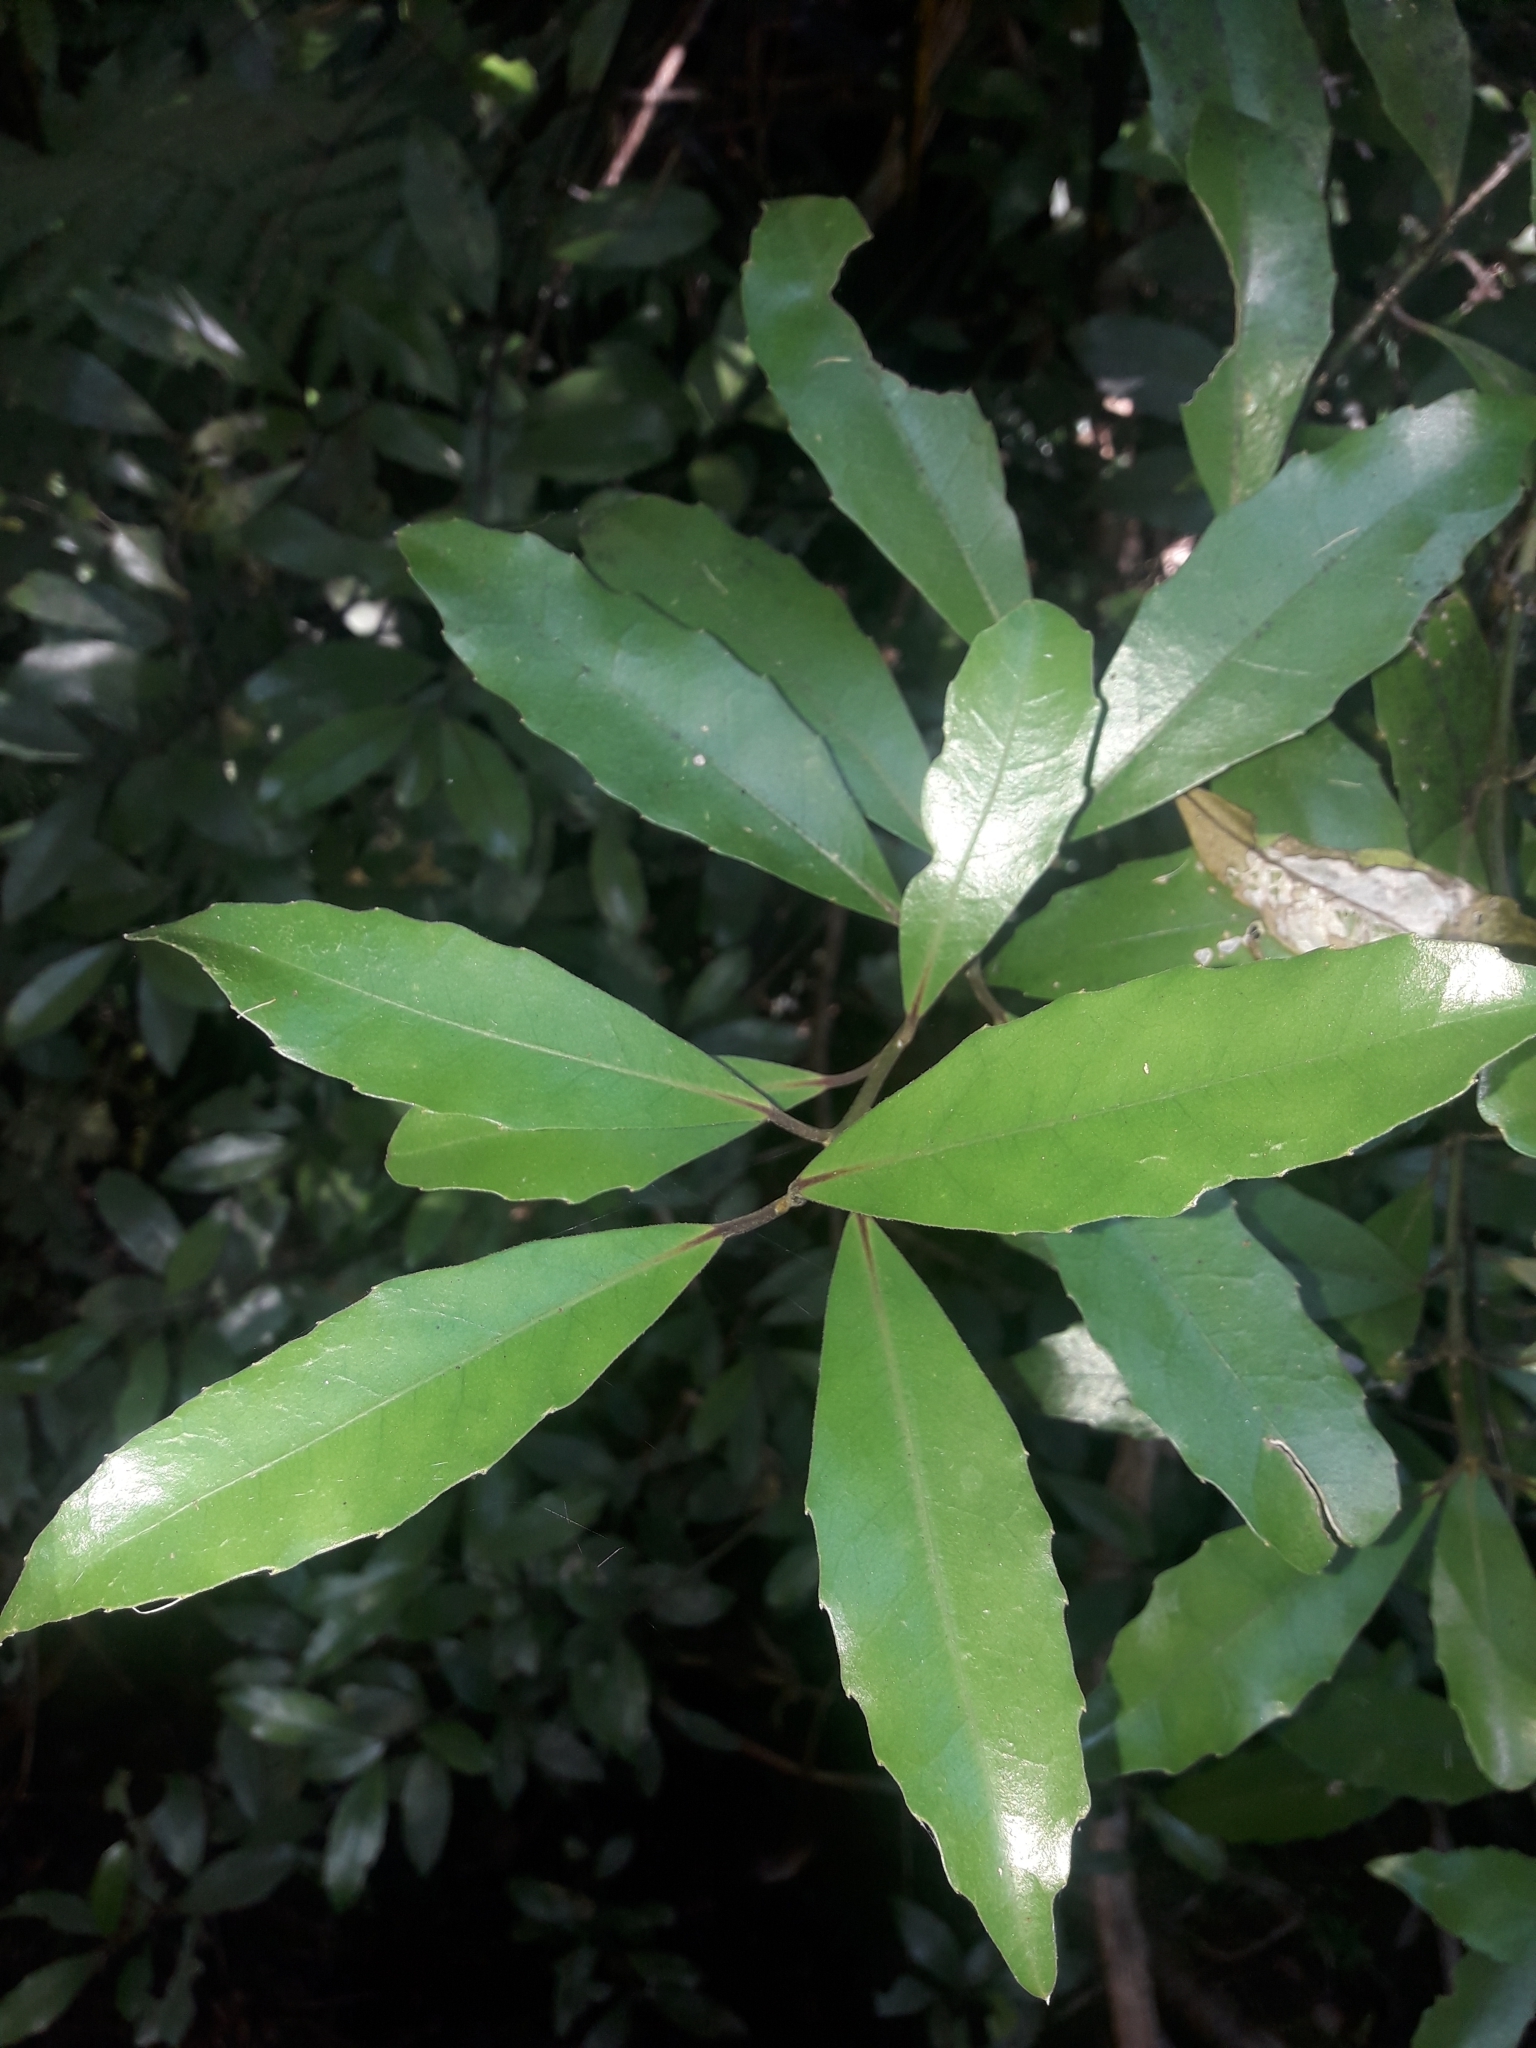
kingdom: Plantae
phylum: Tracheophyta
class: Magnoliopsida
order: Laurales
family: Monimiaceae
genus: Hedycarya
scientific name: Hedycarya arborea
